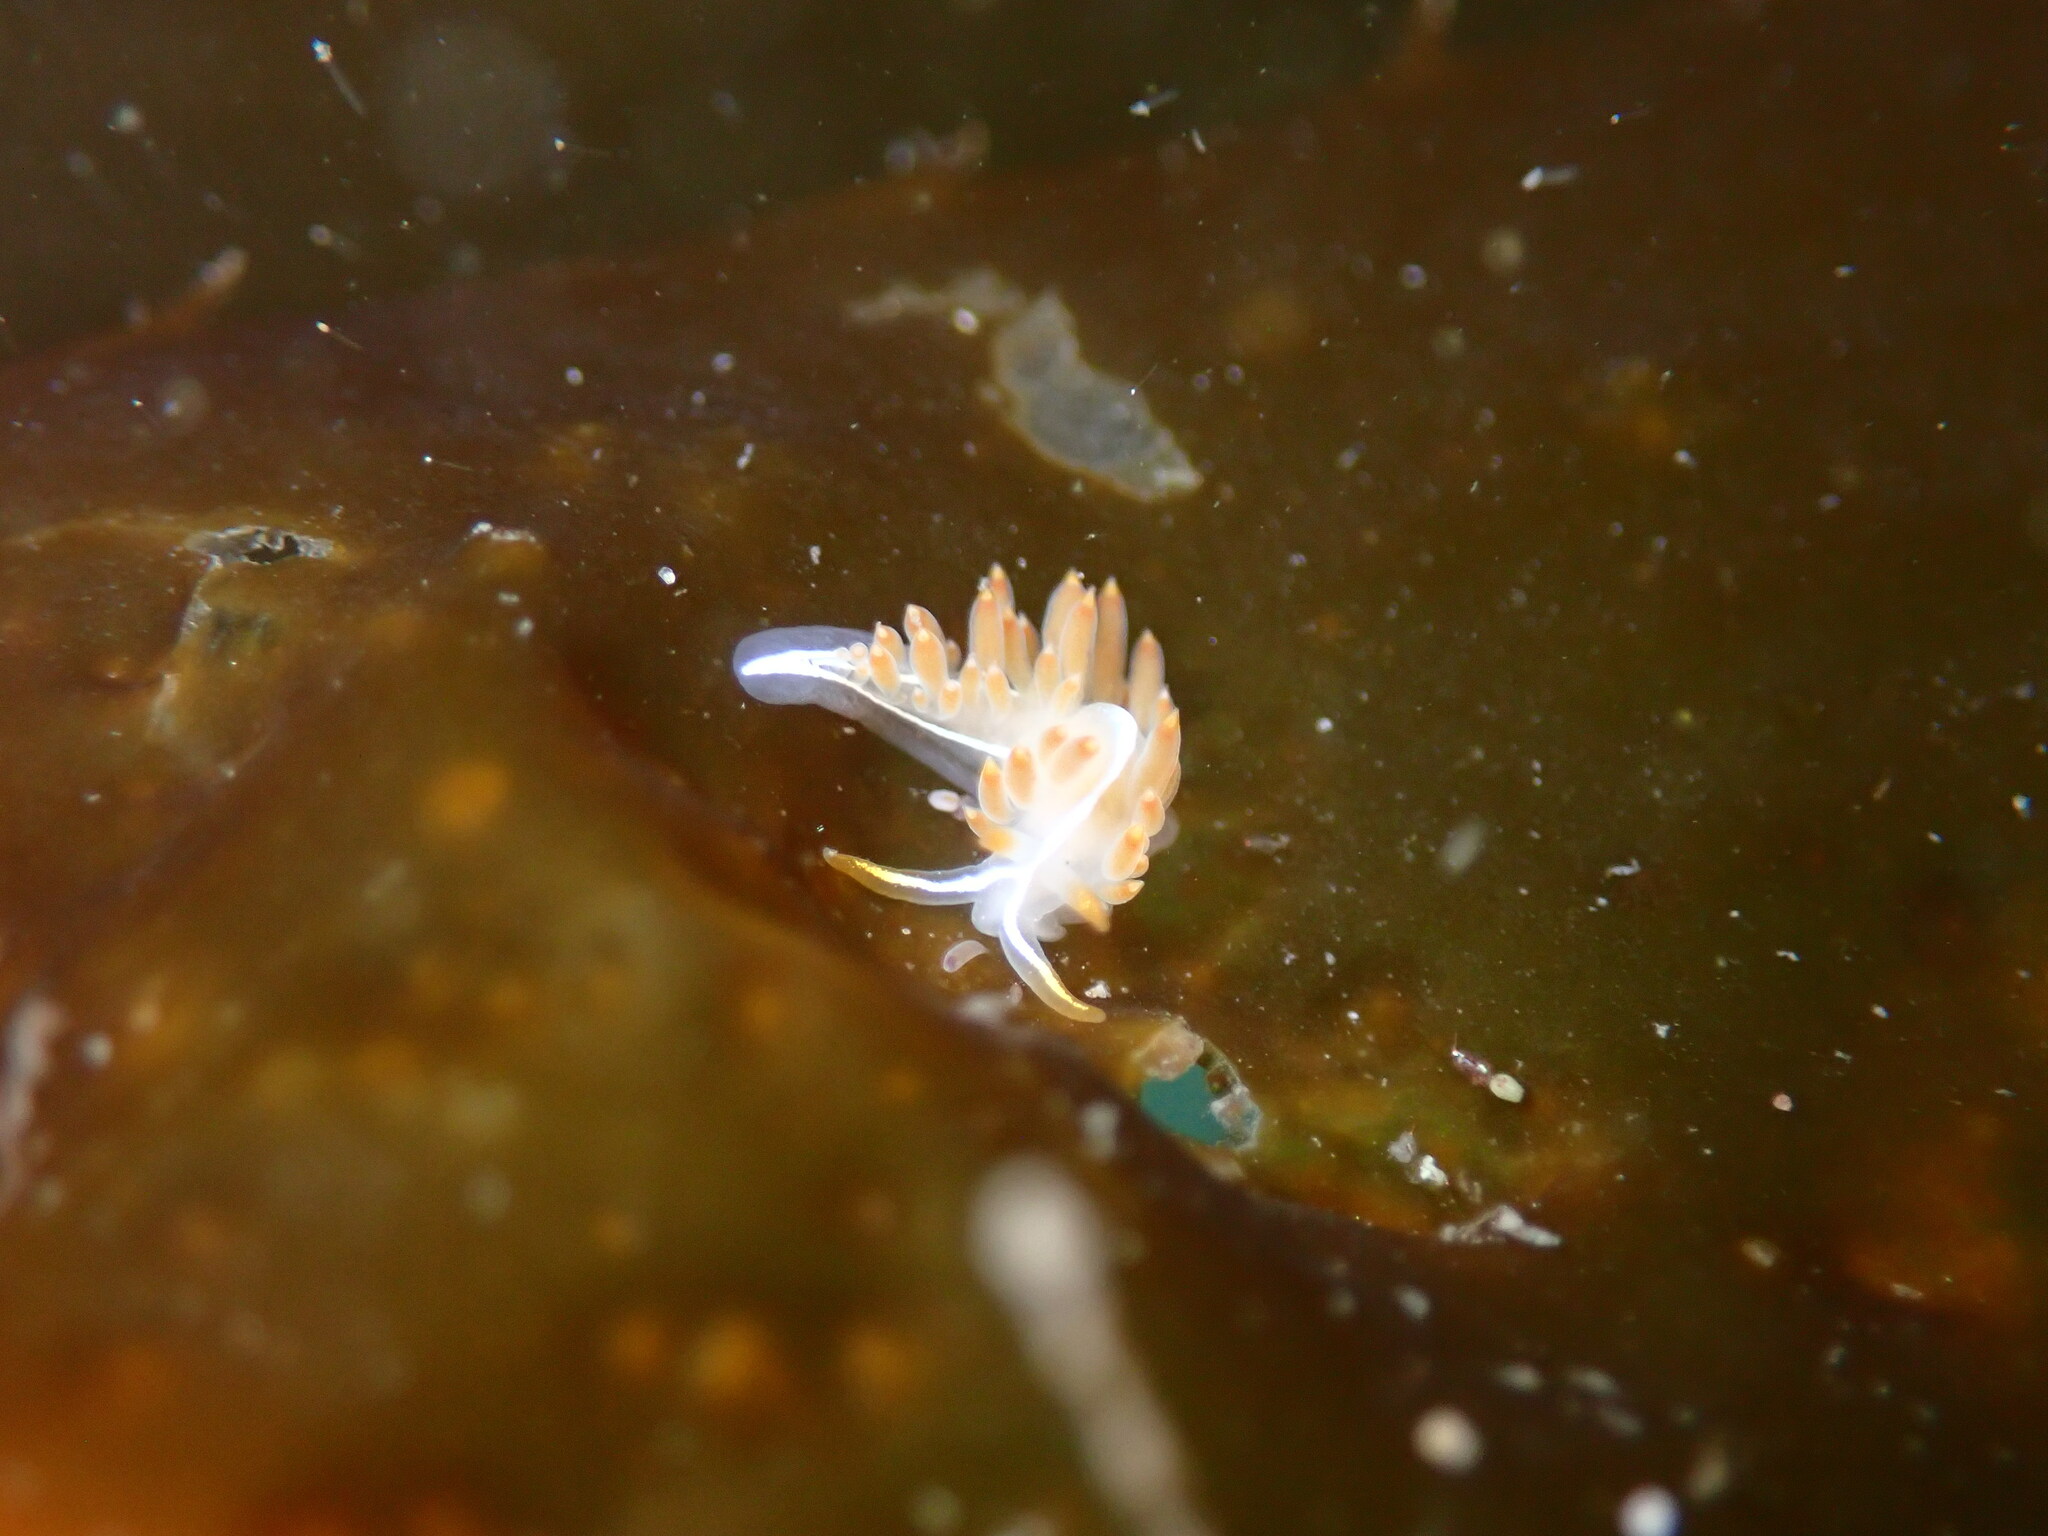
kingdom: Animalia
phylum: Mollusca
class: Gastropoda
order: Nudibranchia
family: Coryphellidae
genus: Coryphella
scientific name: Coryphella trilineata
